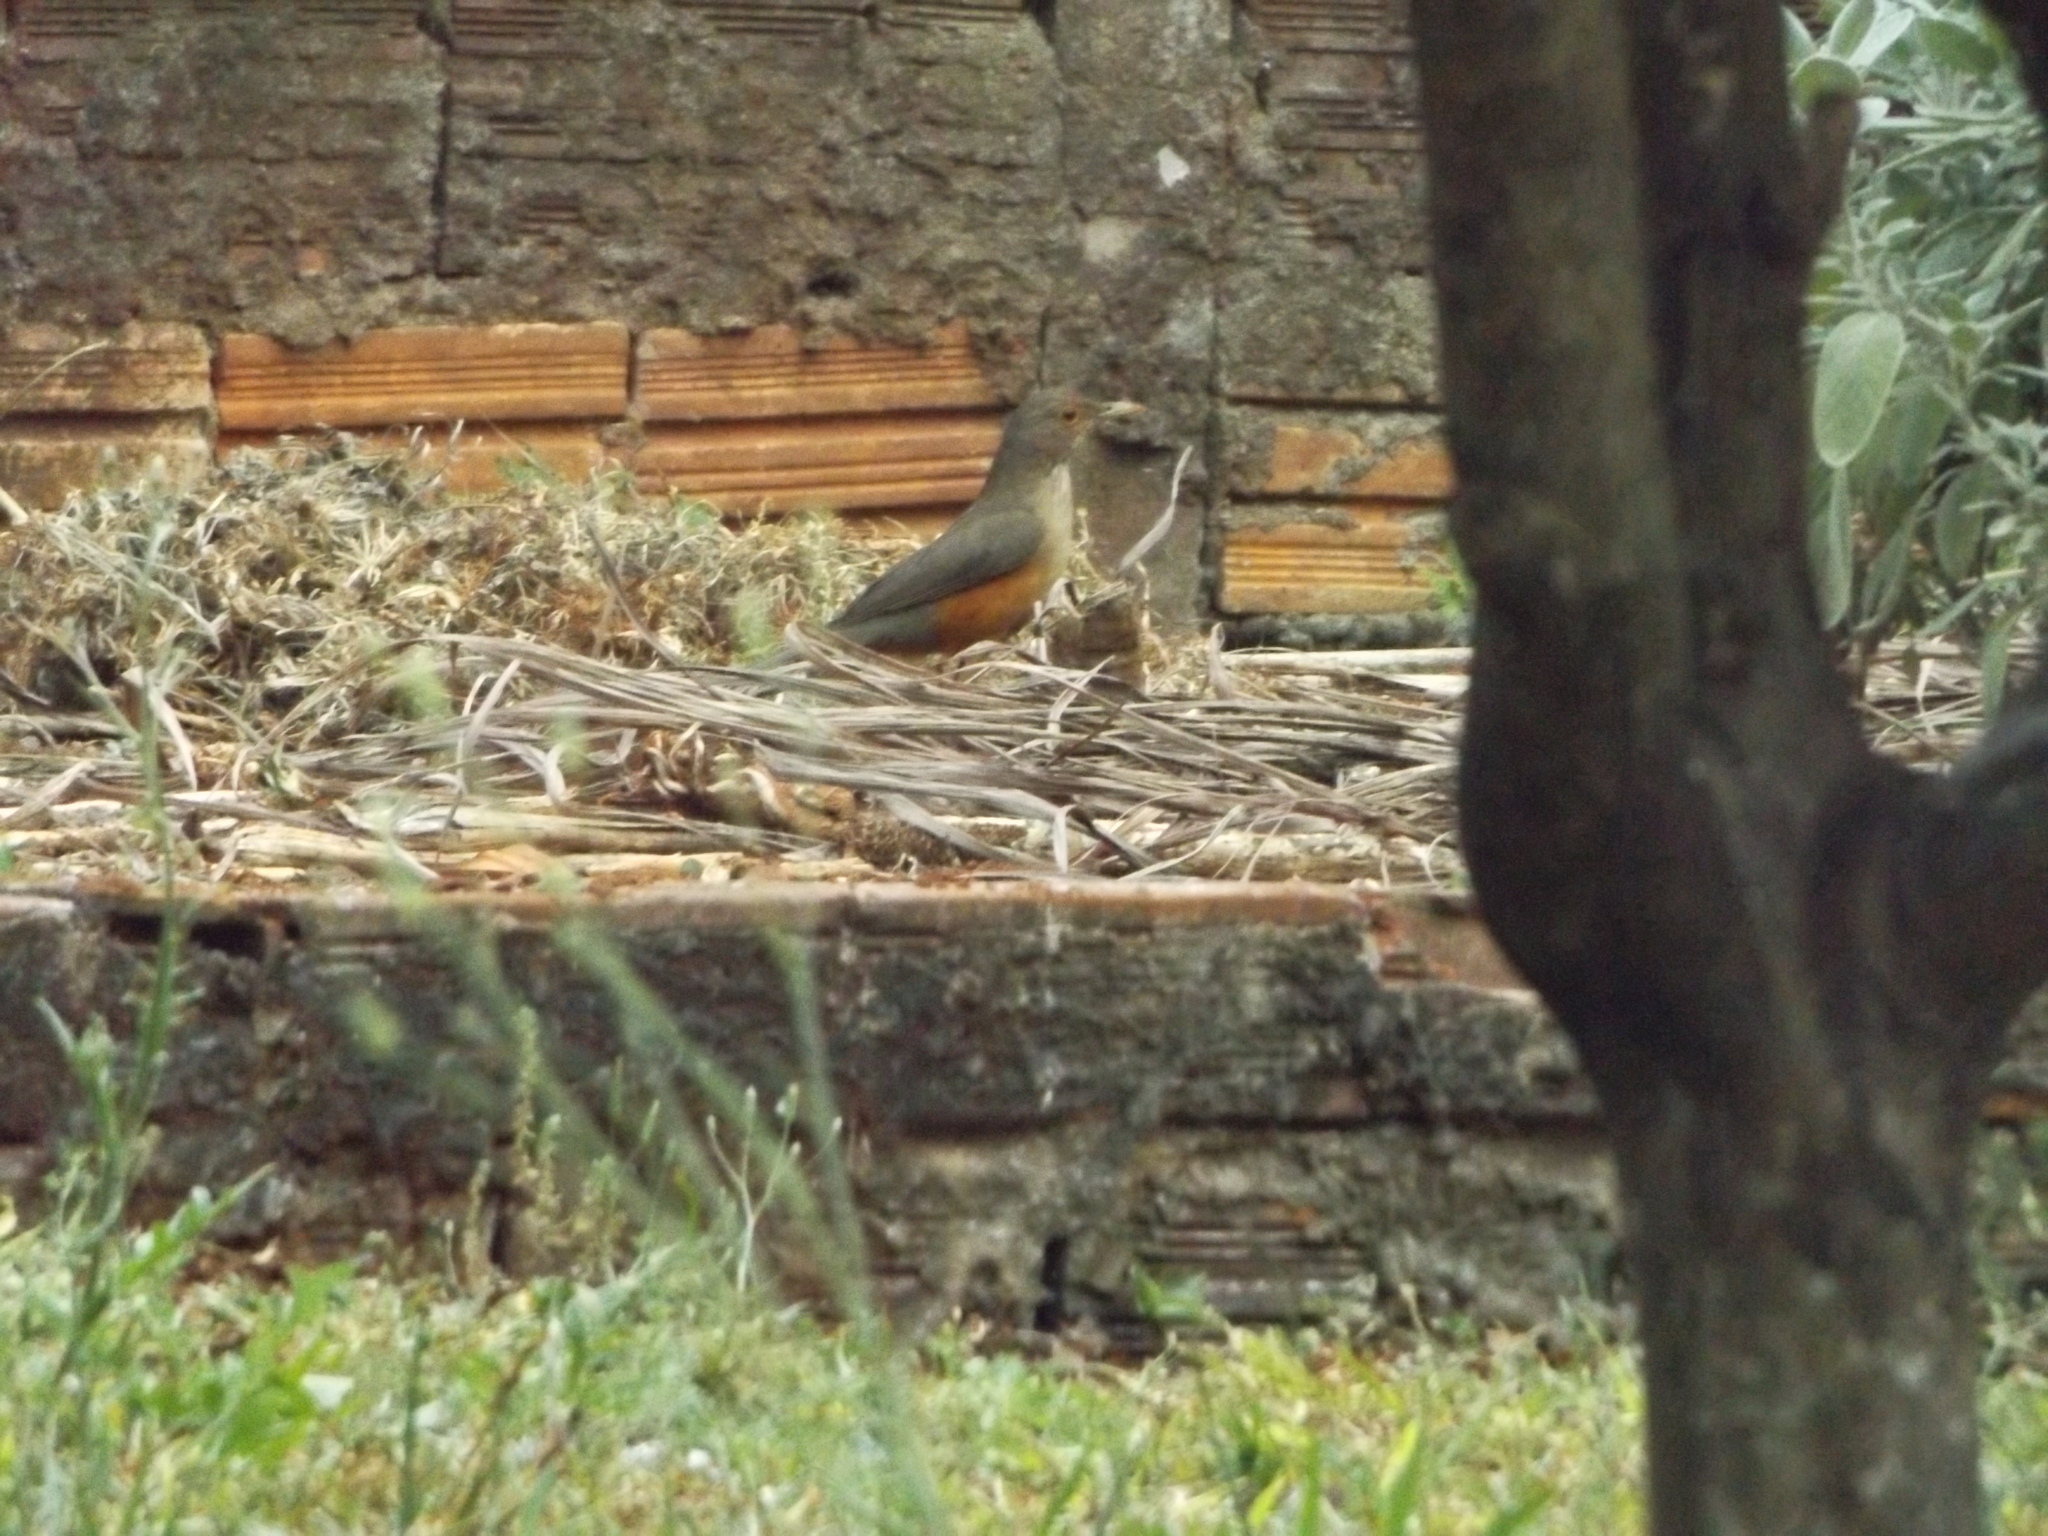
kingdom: Animalia
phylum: Chordata
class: Aves
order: Passeriformes
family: Turdidae
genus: Turdus
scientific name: Turdus rufiventris
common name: Rufous-bellied thrush
